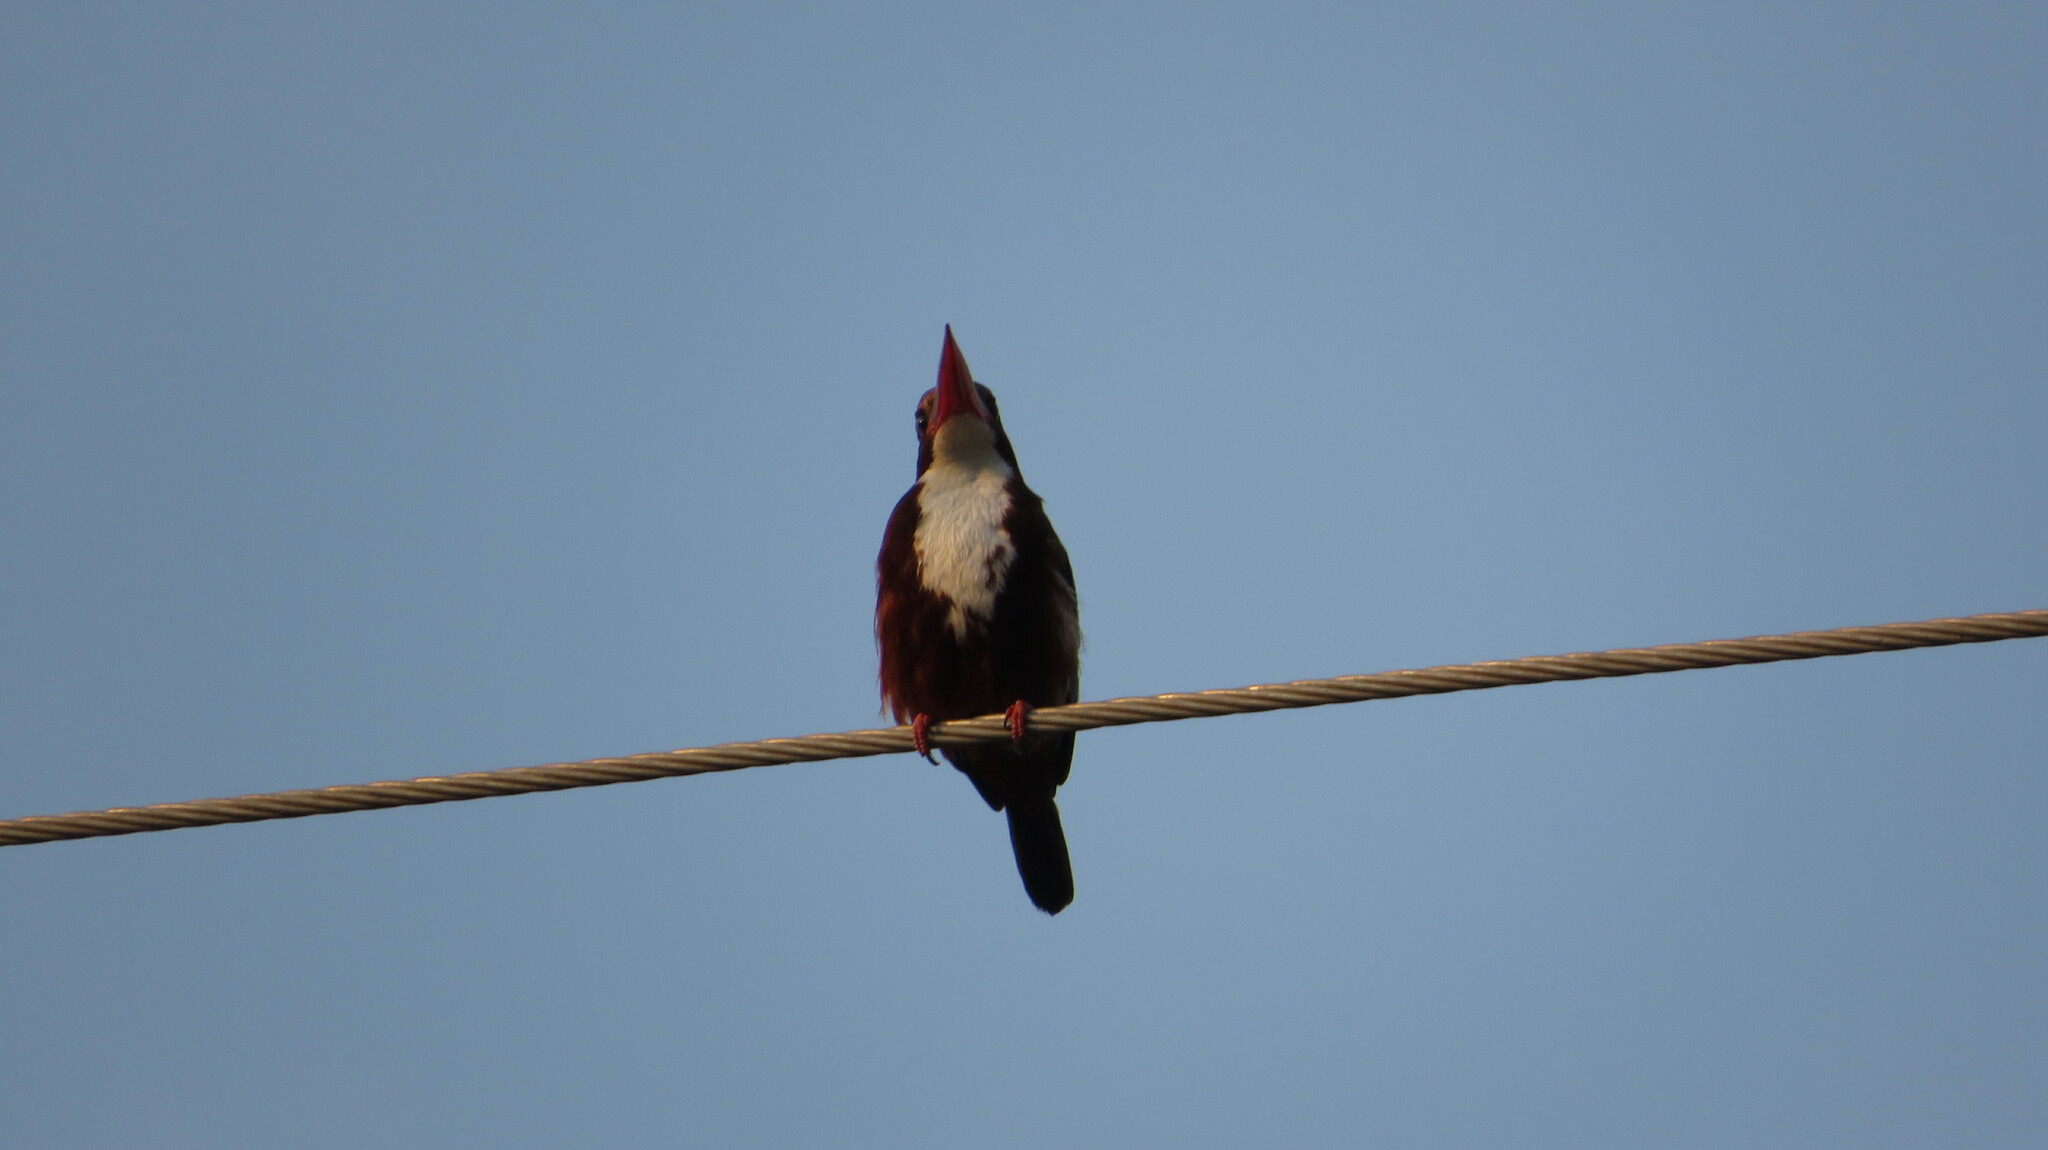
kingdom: Animalia
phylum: Chordata
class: Aves
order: Coraciiformes
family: Alcedinidae
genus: Halcyon
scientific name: Halcyon smyrnensis
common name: White-throated kingfisher
